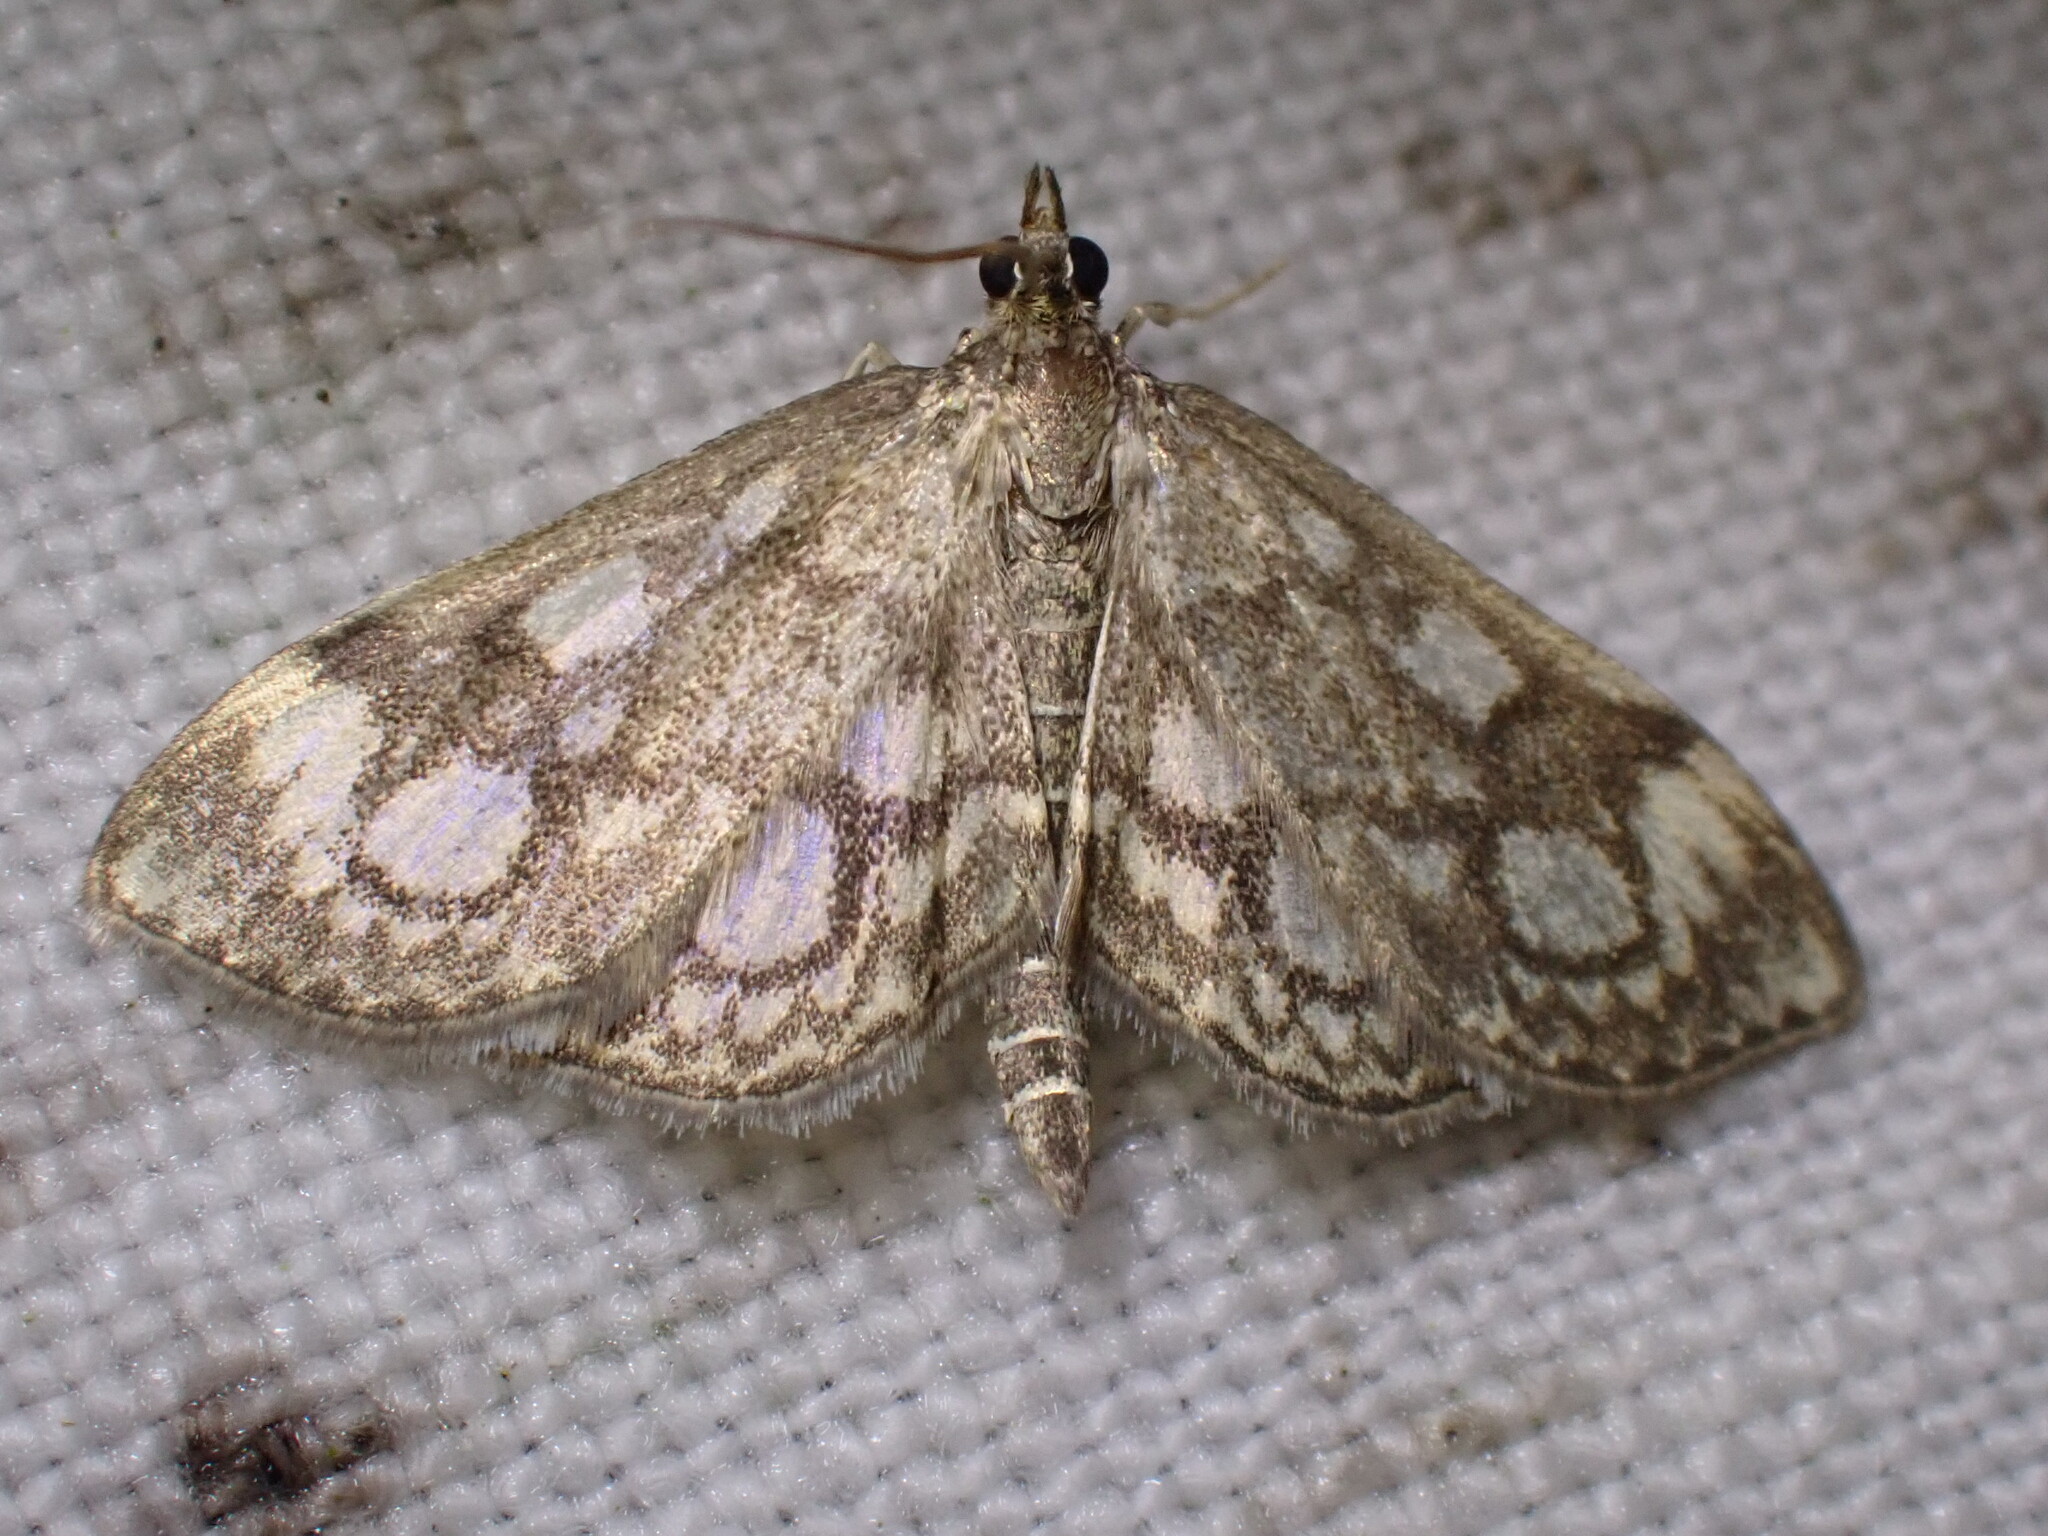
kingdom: Animalia
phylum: Arthropoda
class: Insecta
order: Lepidoptera
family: Crambidae
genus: Anania
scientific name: Anania coronata
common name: Elder pearl
